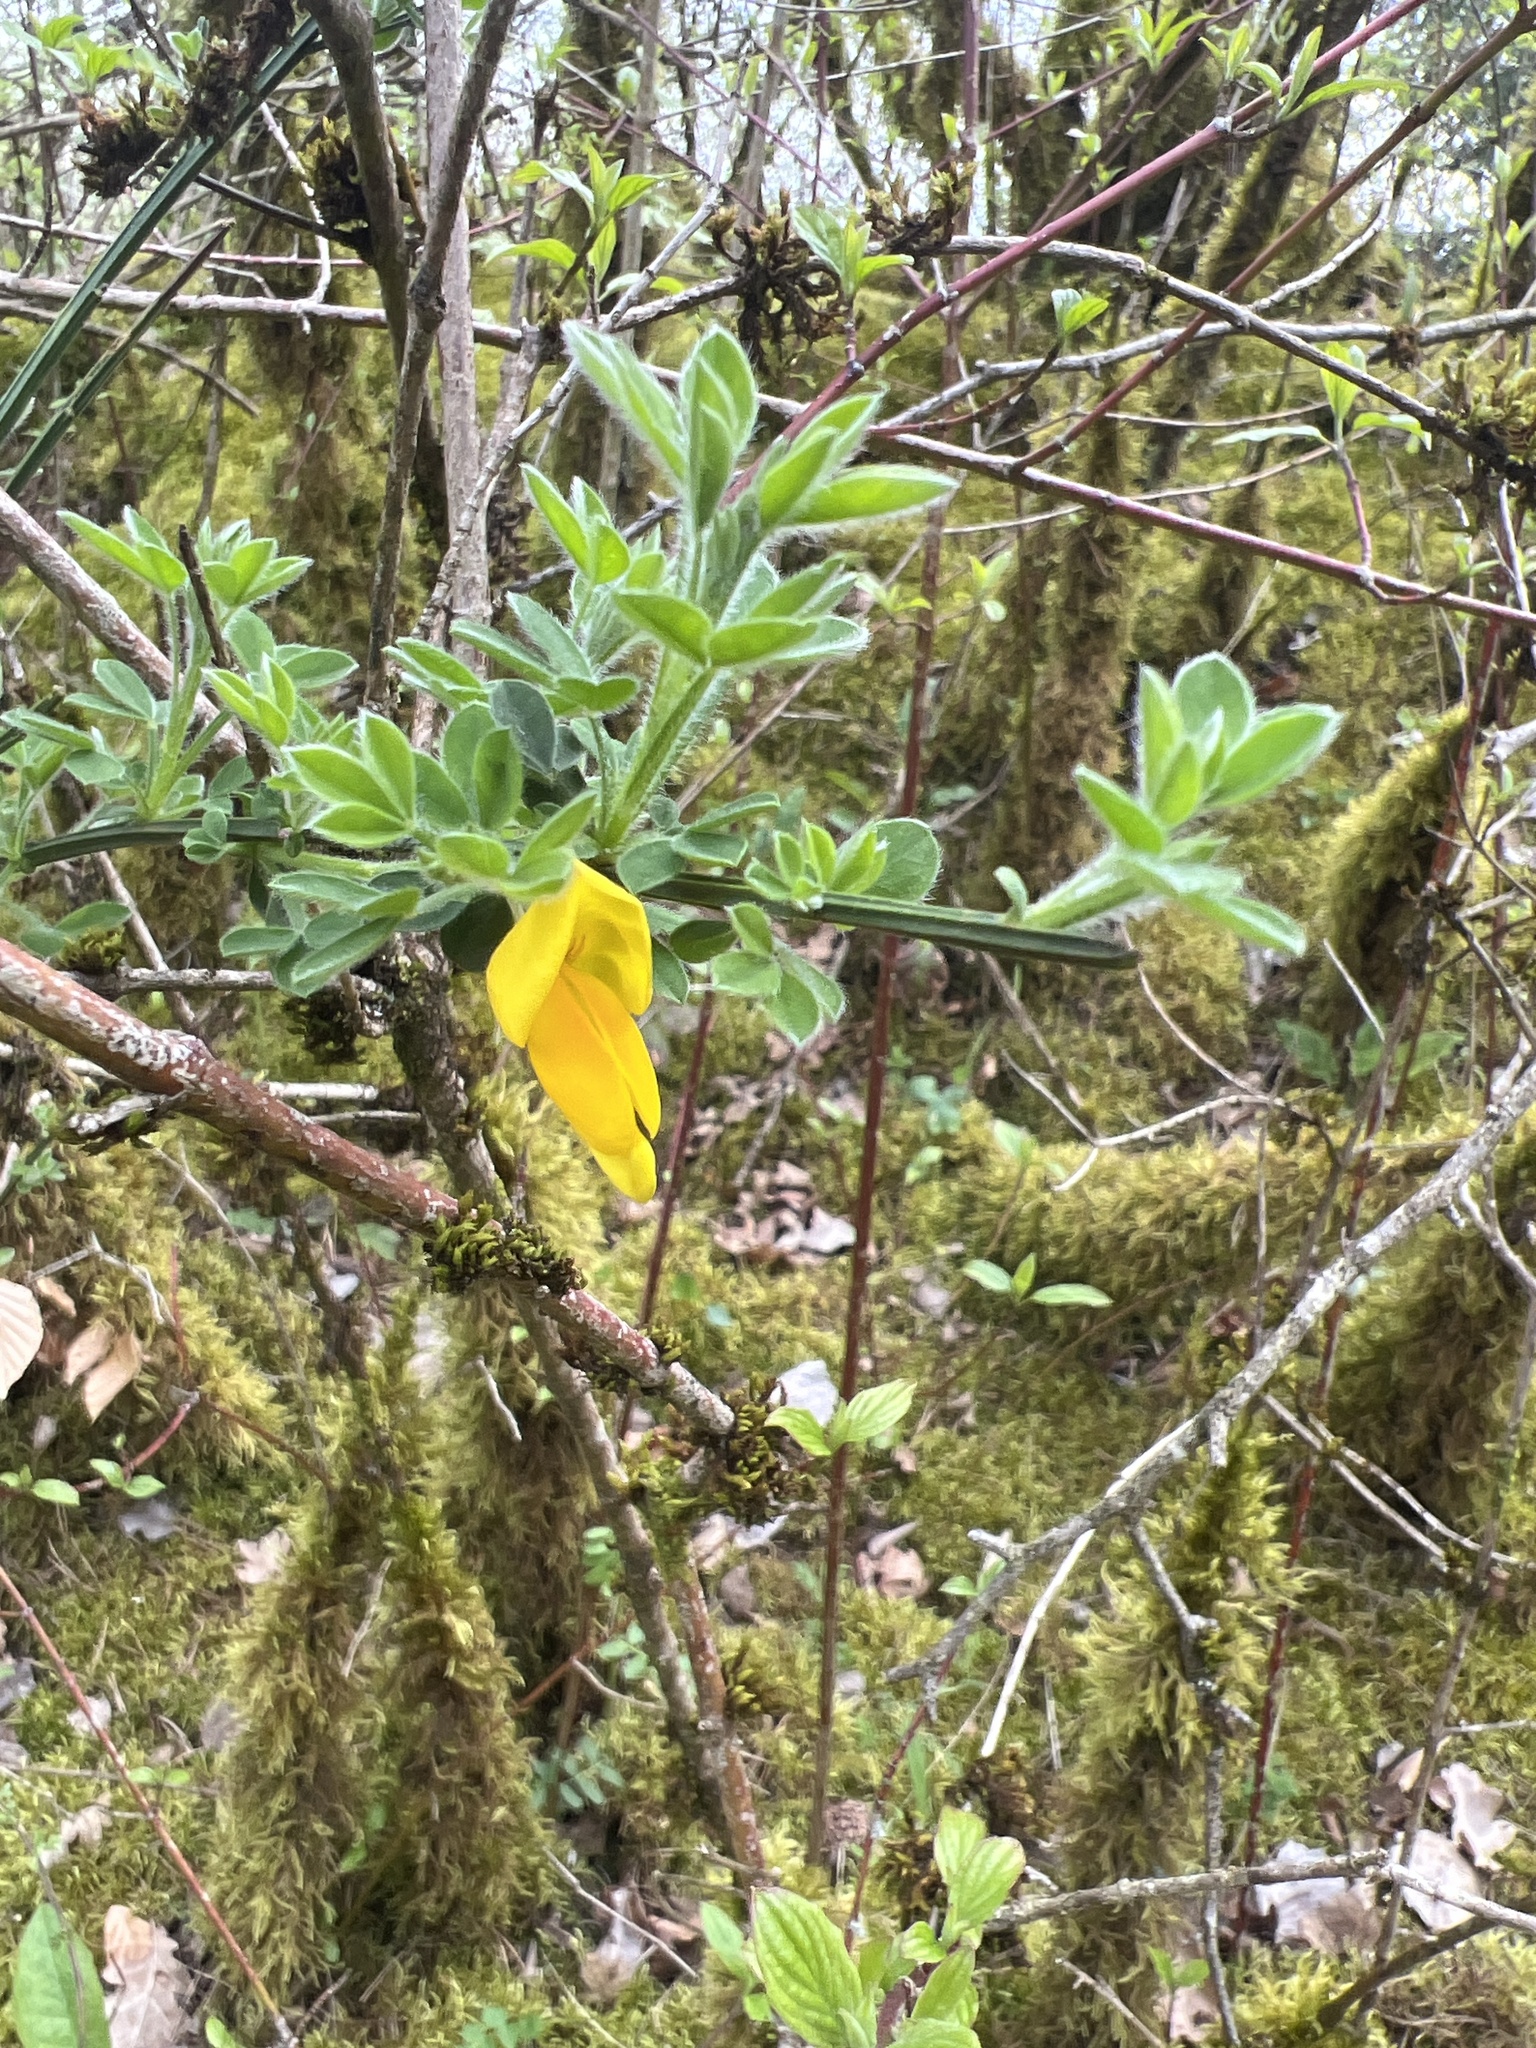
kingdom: Plantae
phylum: Tracheophyta
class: Magnoliopsida
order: Fabales
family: Fabaceae
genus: Cytisus
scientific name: Cytisus scoparius
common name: Scotch broom
